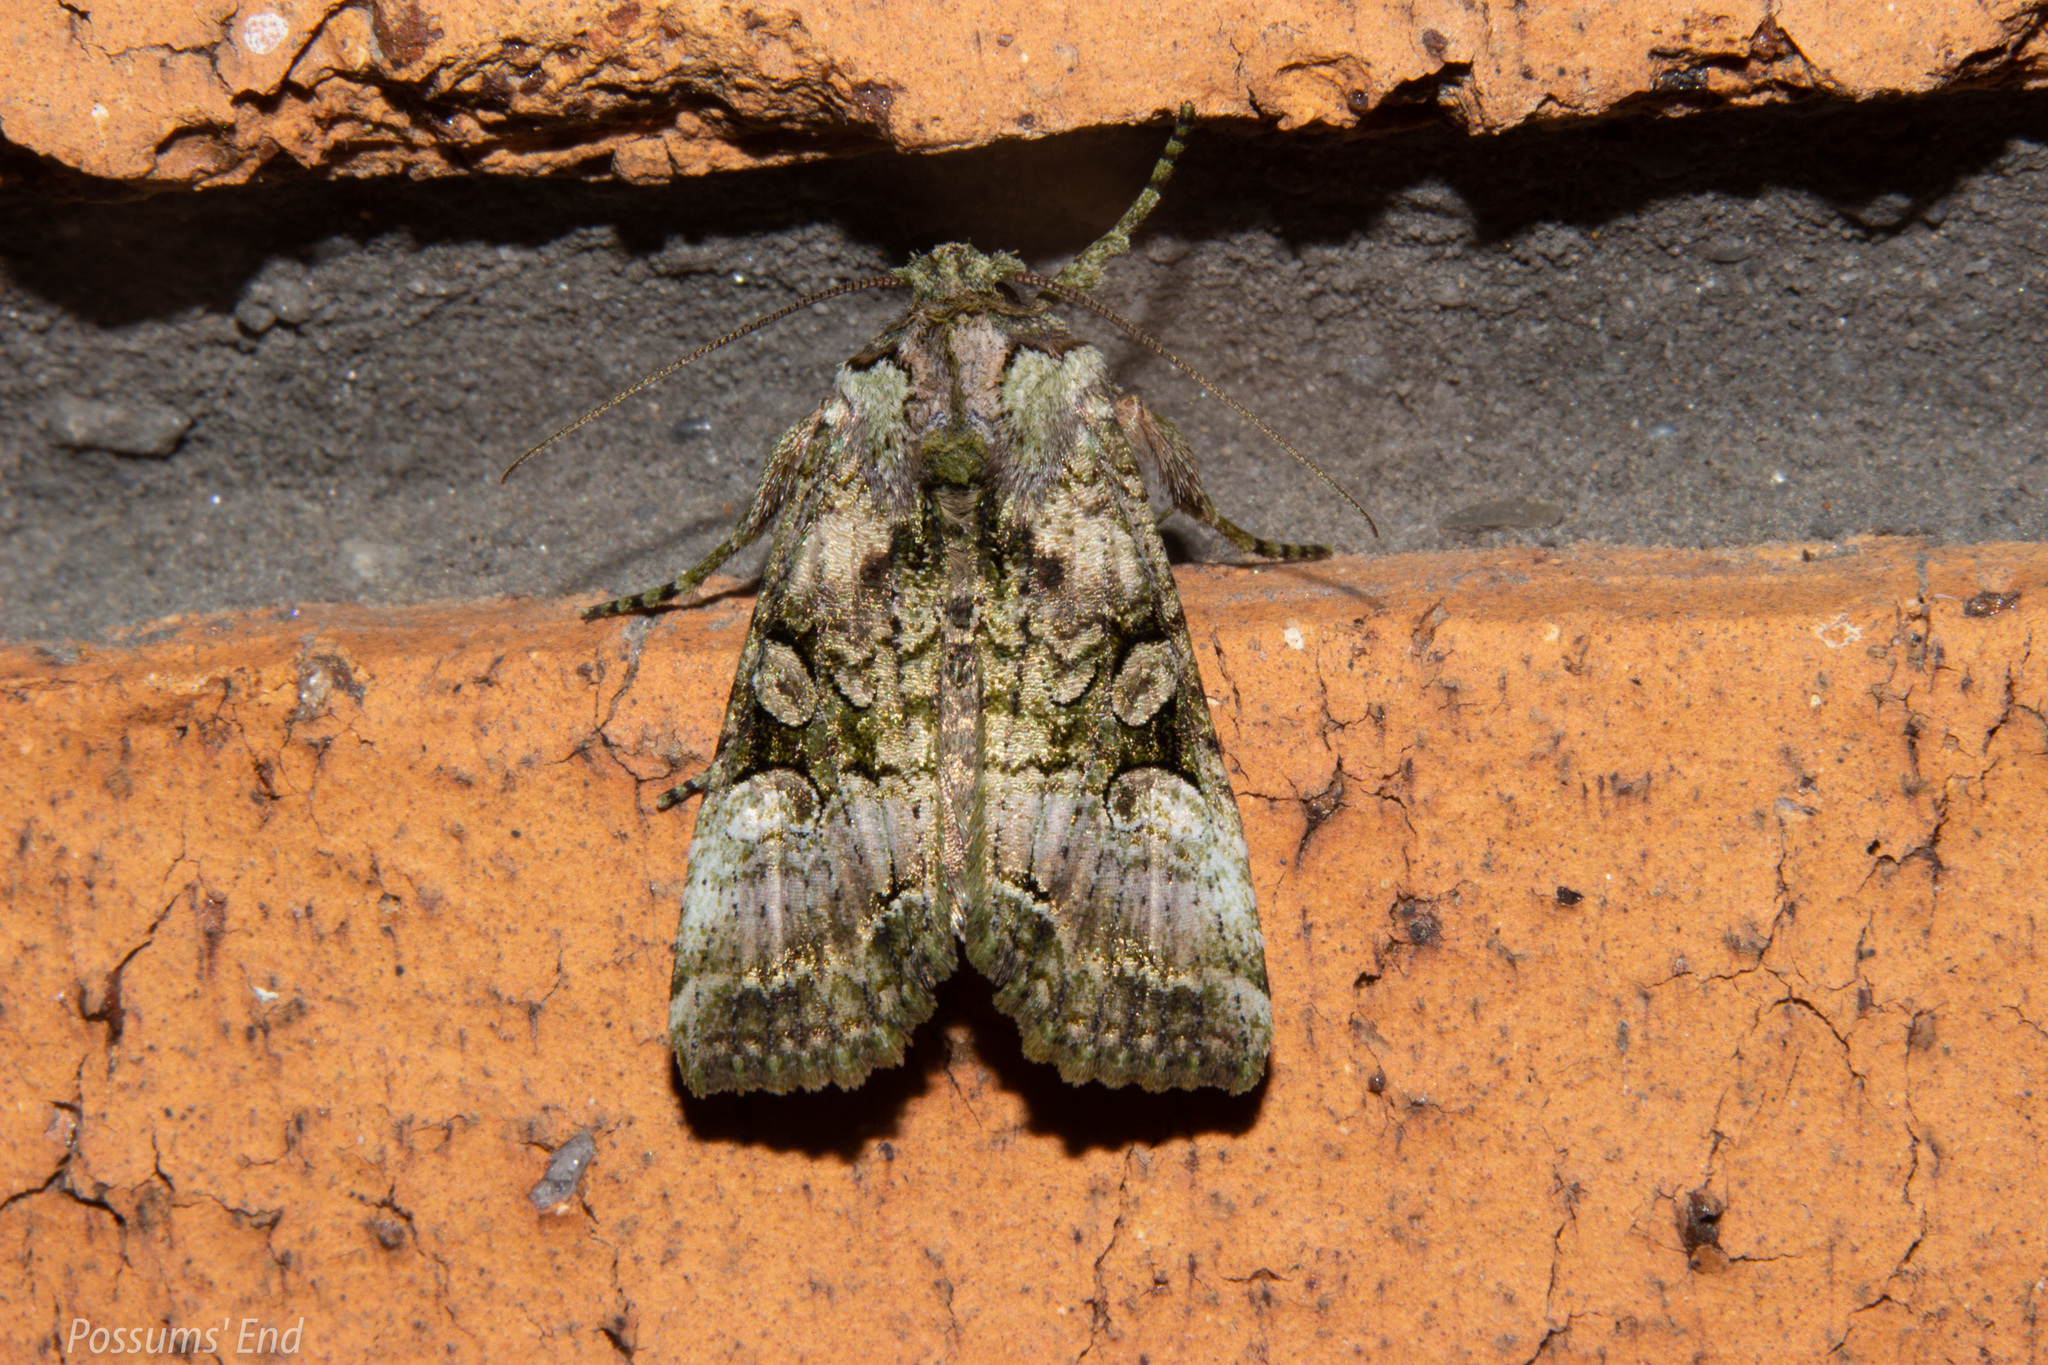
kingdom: Animalia
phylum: Arthropoda
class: Insecta
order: Lepidoptera
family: Noctuidae
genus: Meterana
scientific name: Meterana levis
